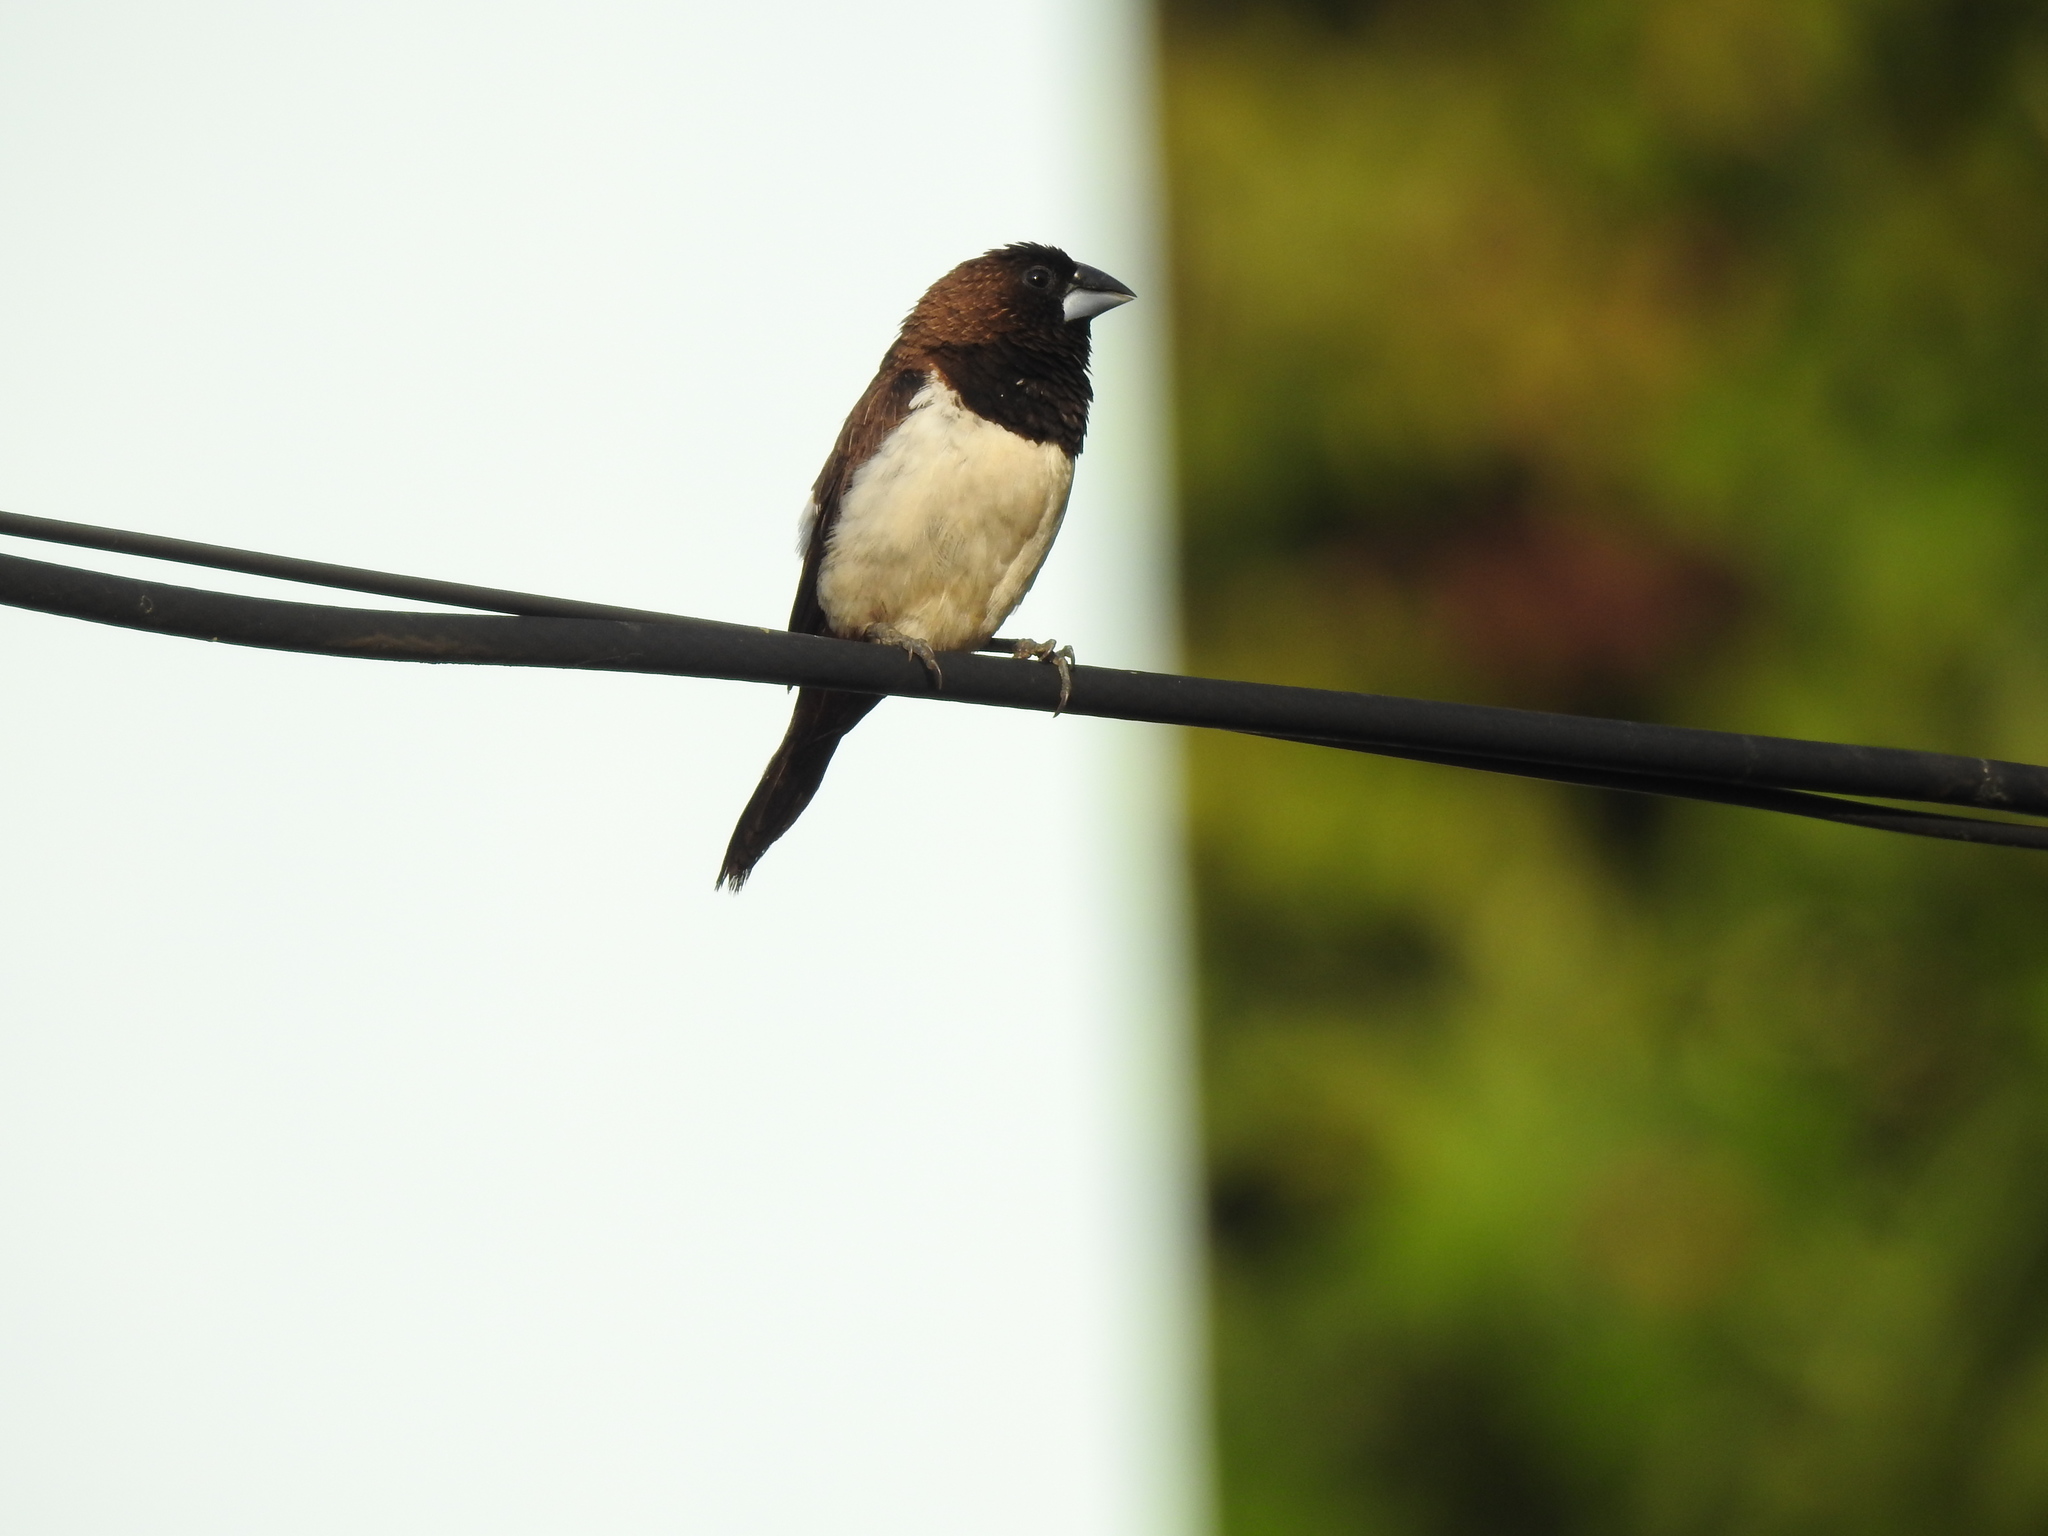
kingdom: Animalia
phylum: Chordata
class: Aves
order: Passeriformes
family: Estrildidae
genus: Lonchura
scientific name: Lonchura striata
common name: White-rumped munia
